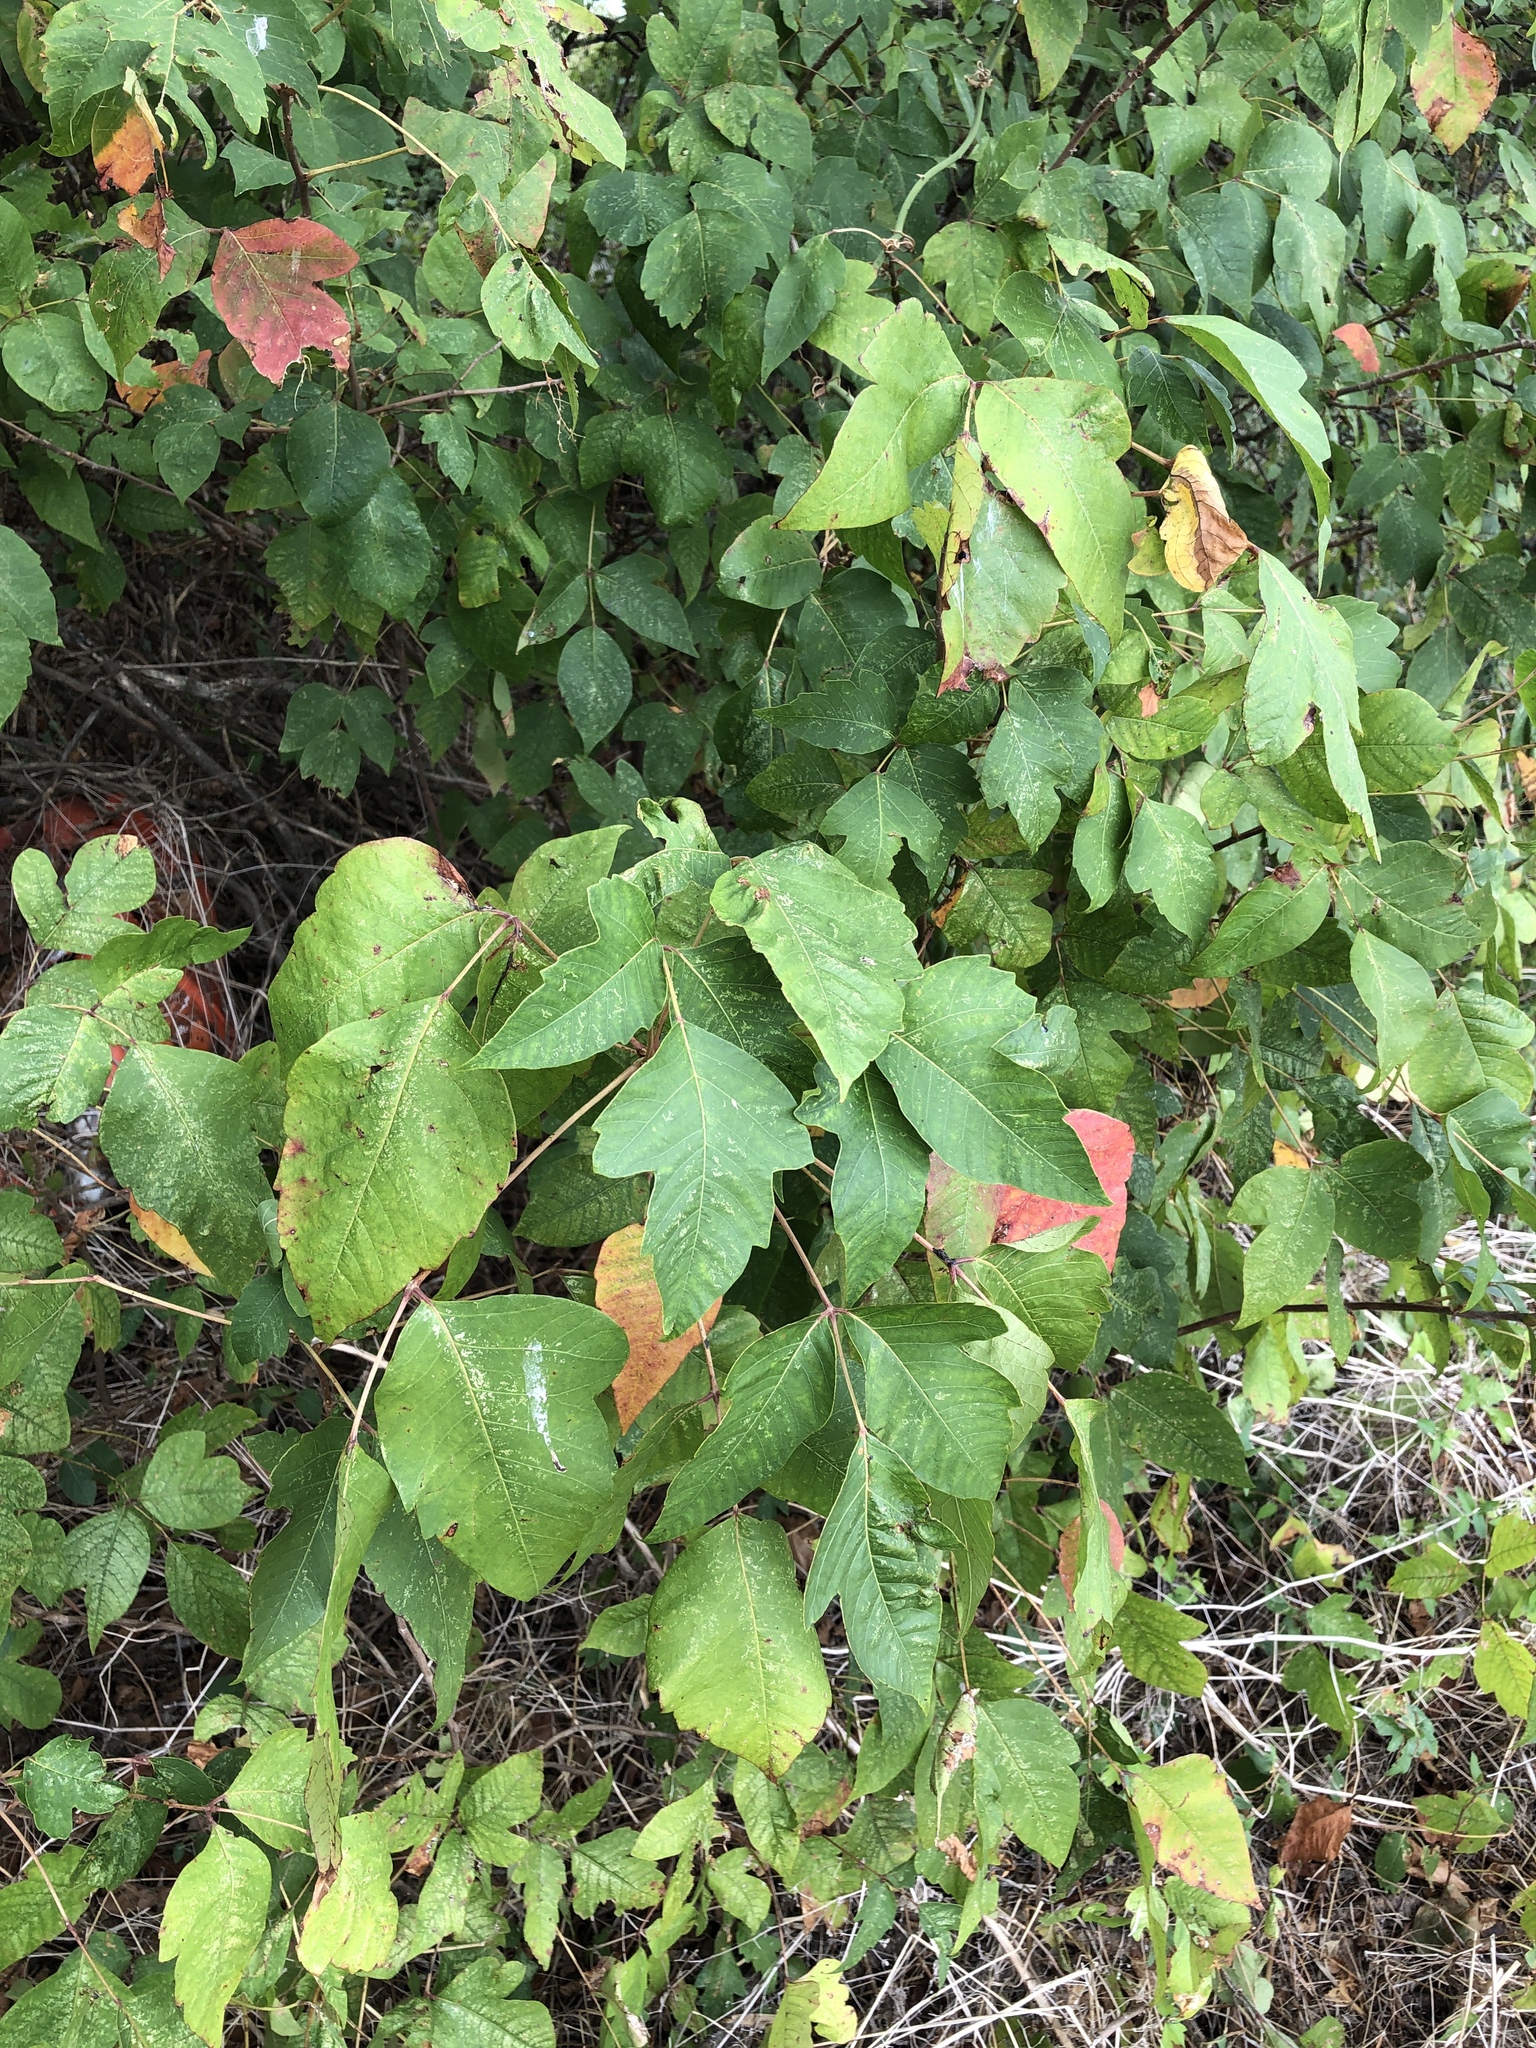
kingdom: Plantae
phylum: Tracheophyta
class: Magnoliopsida
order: Sapindales
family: Anacardiaceae
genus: Toxicodendron
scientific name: Toxicodendron radicans
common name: Poison ivy
